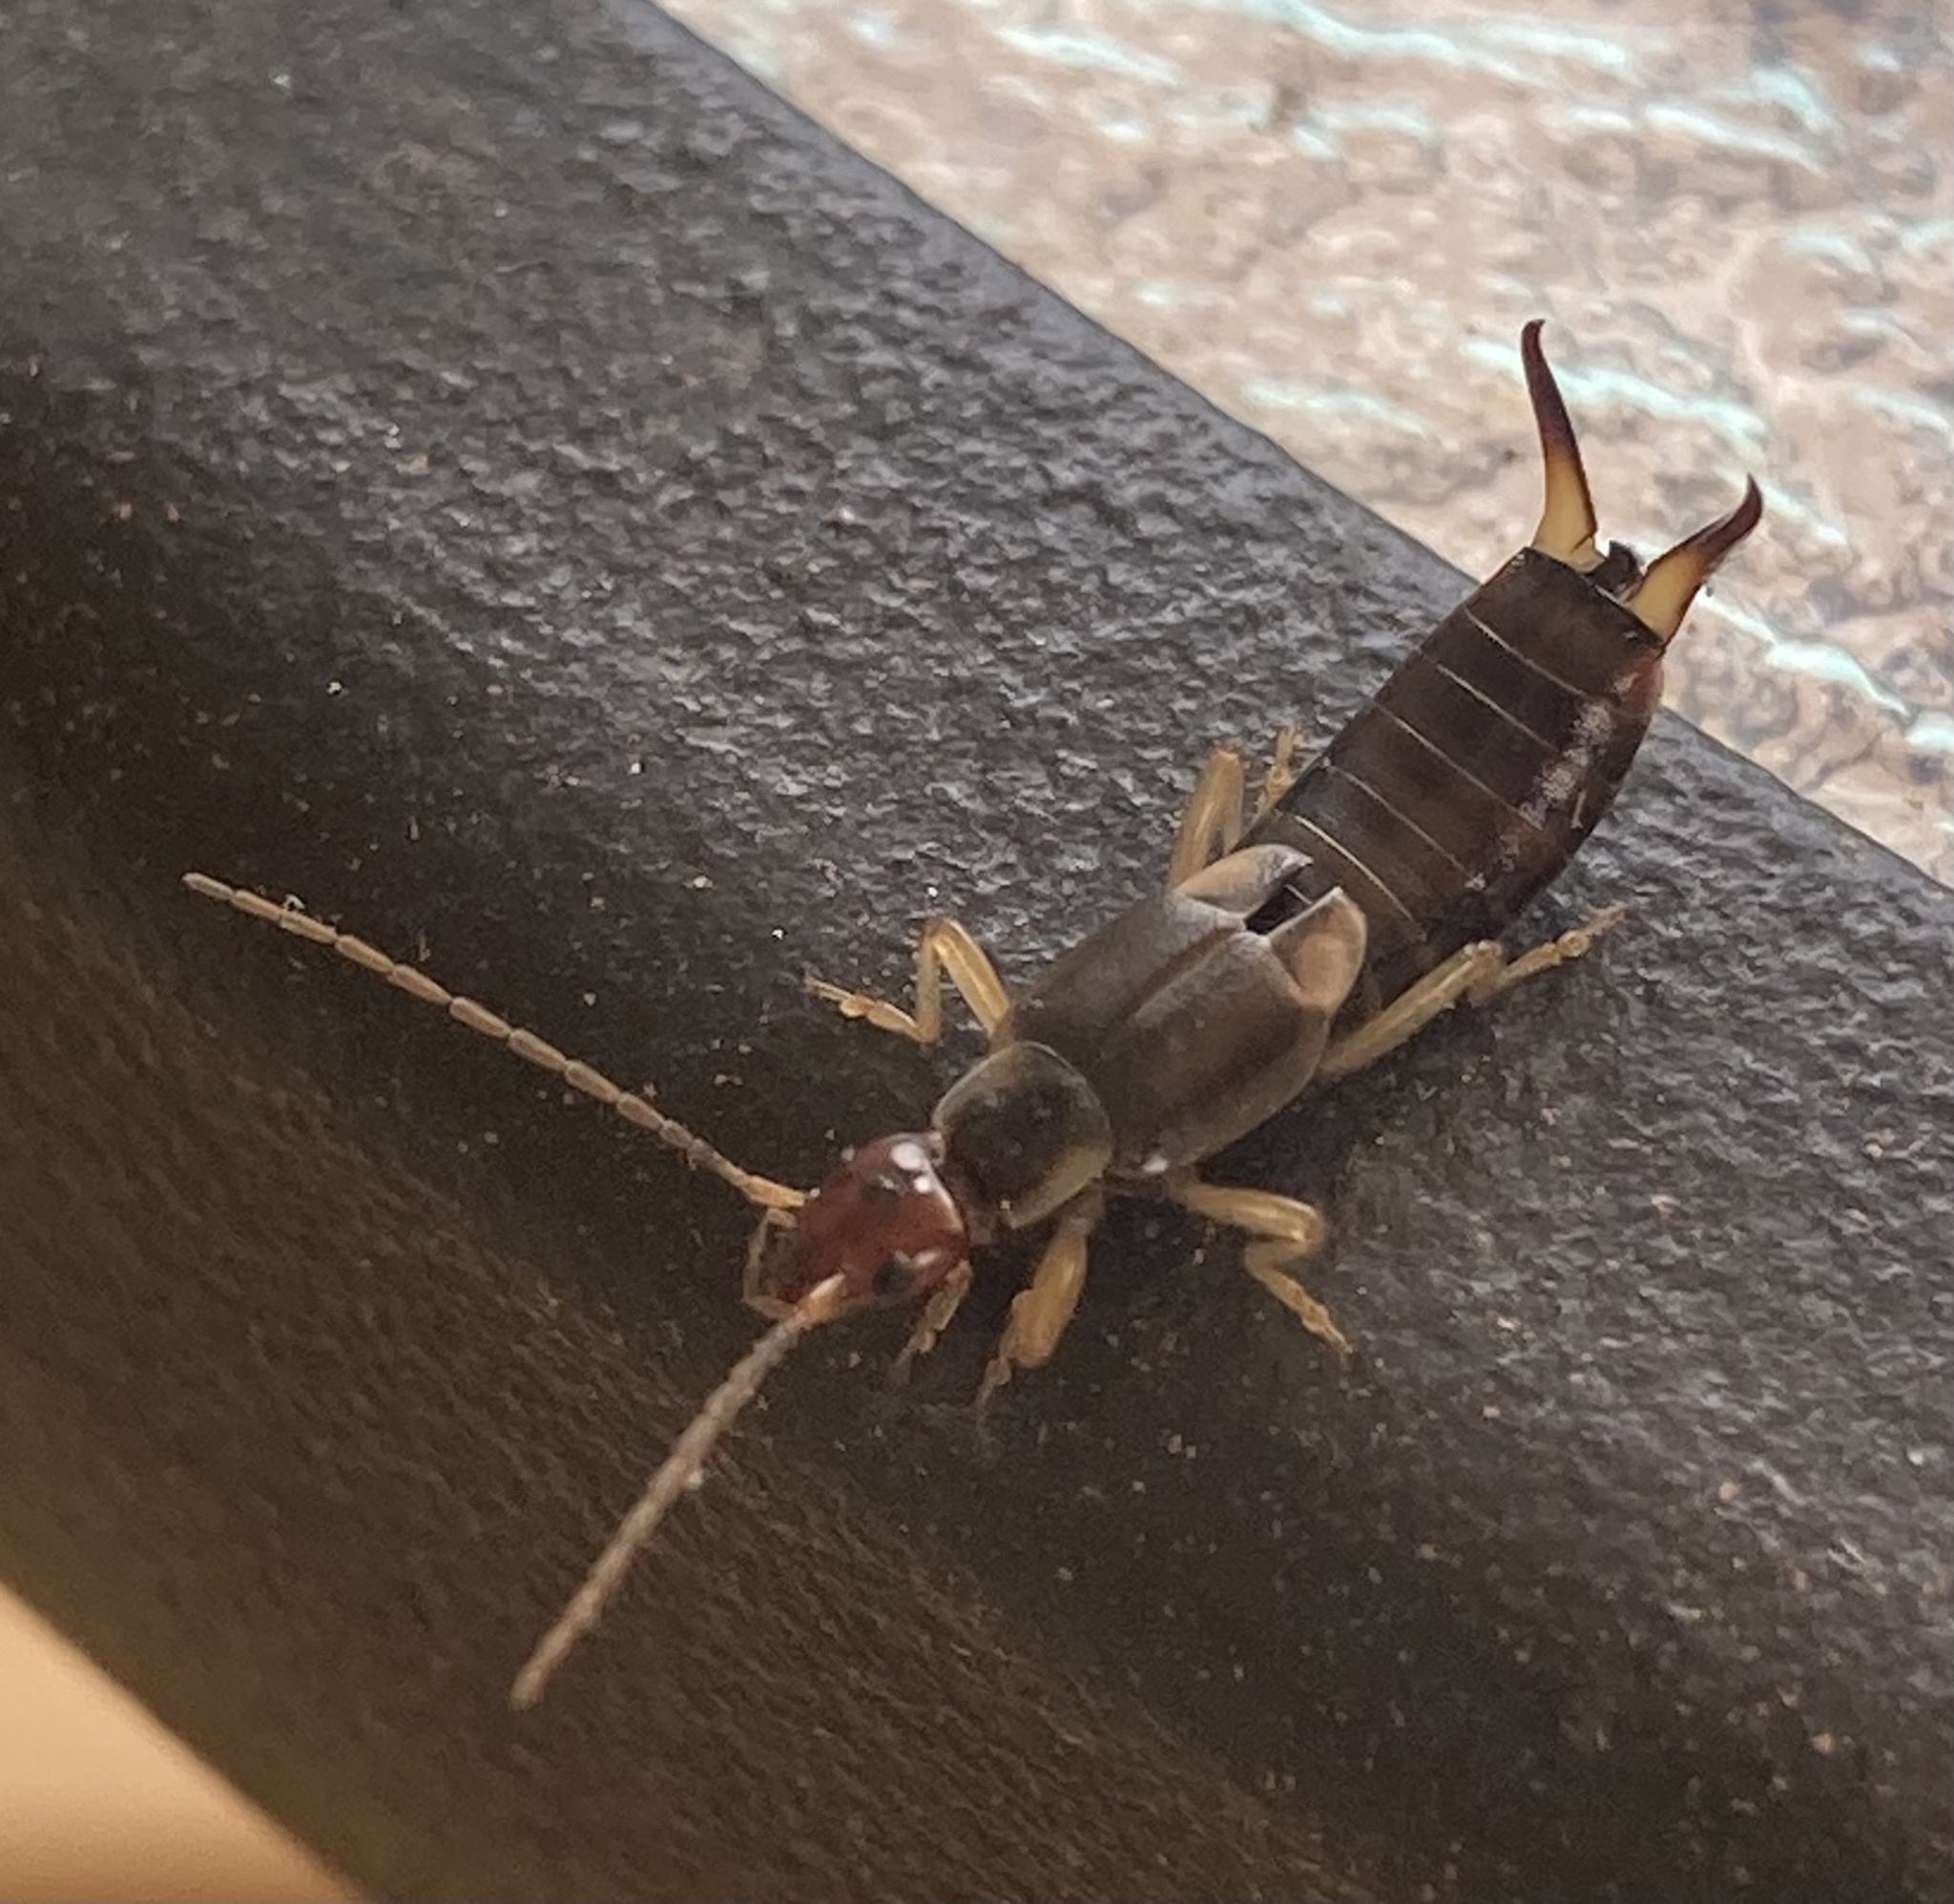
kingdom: Animalia
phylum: Arthropoda
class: Insecta
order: Dermaptera
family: Forficulidae
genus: Forficula
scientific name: Forficula
